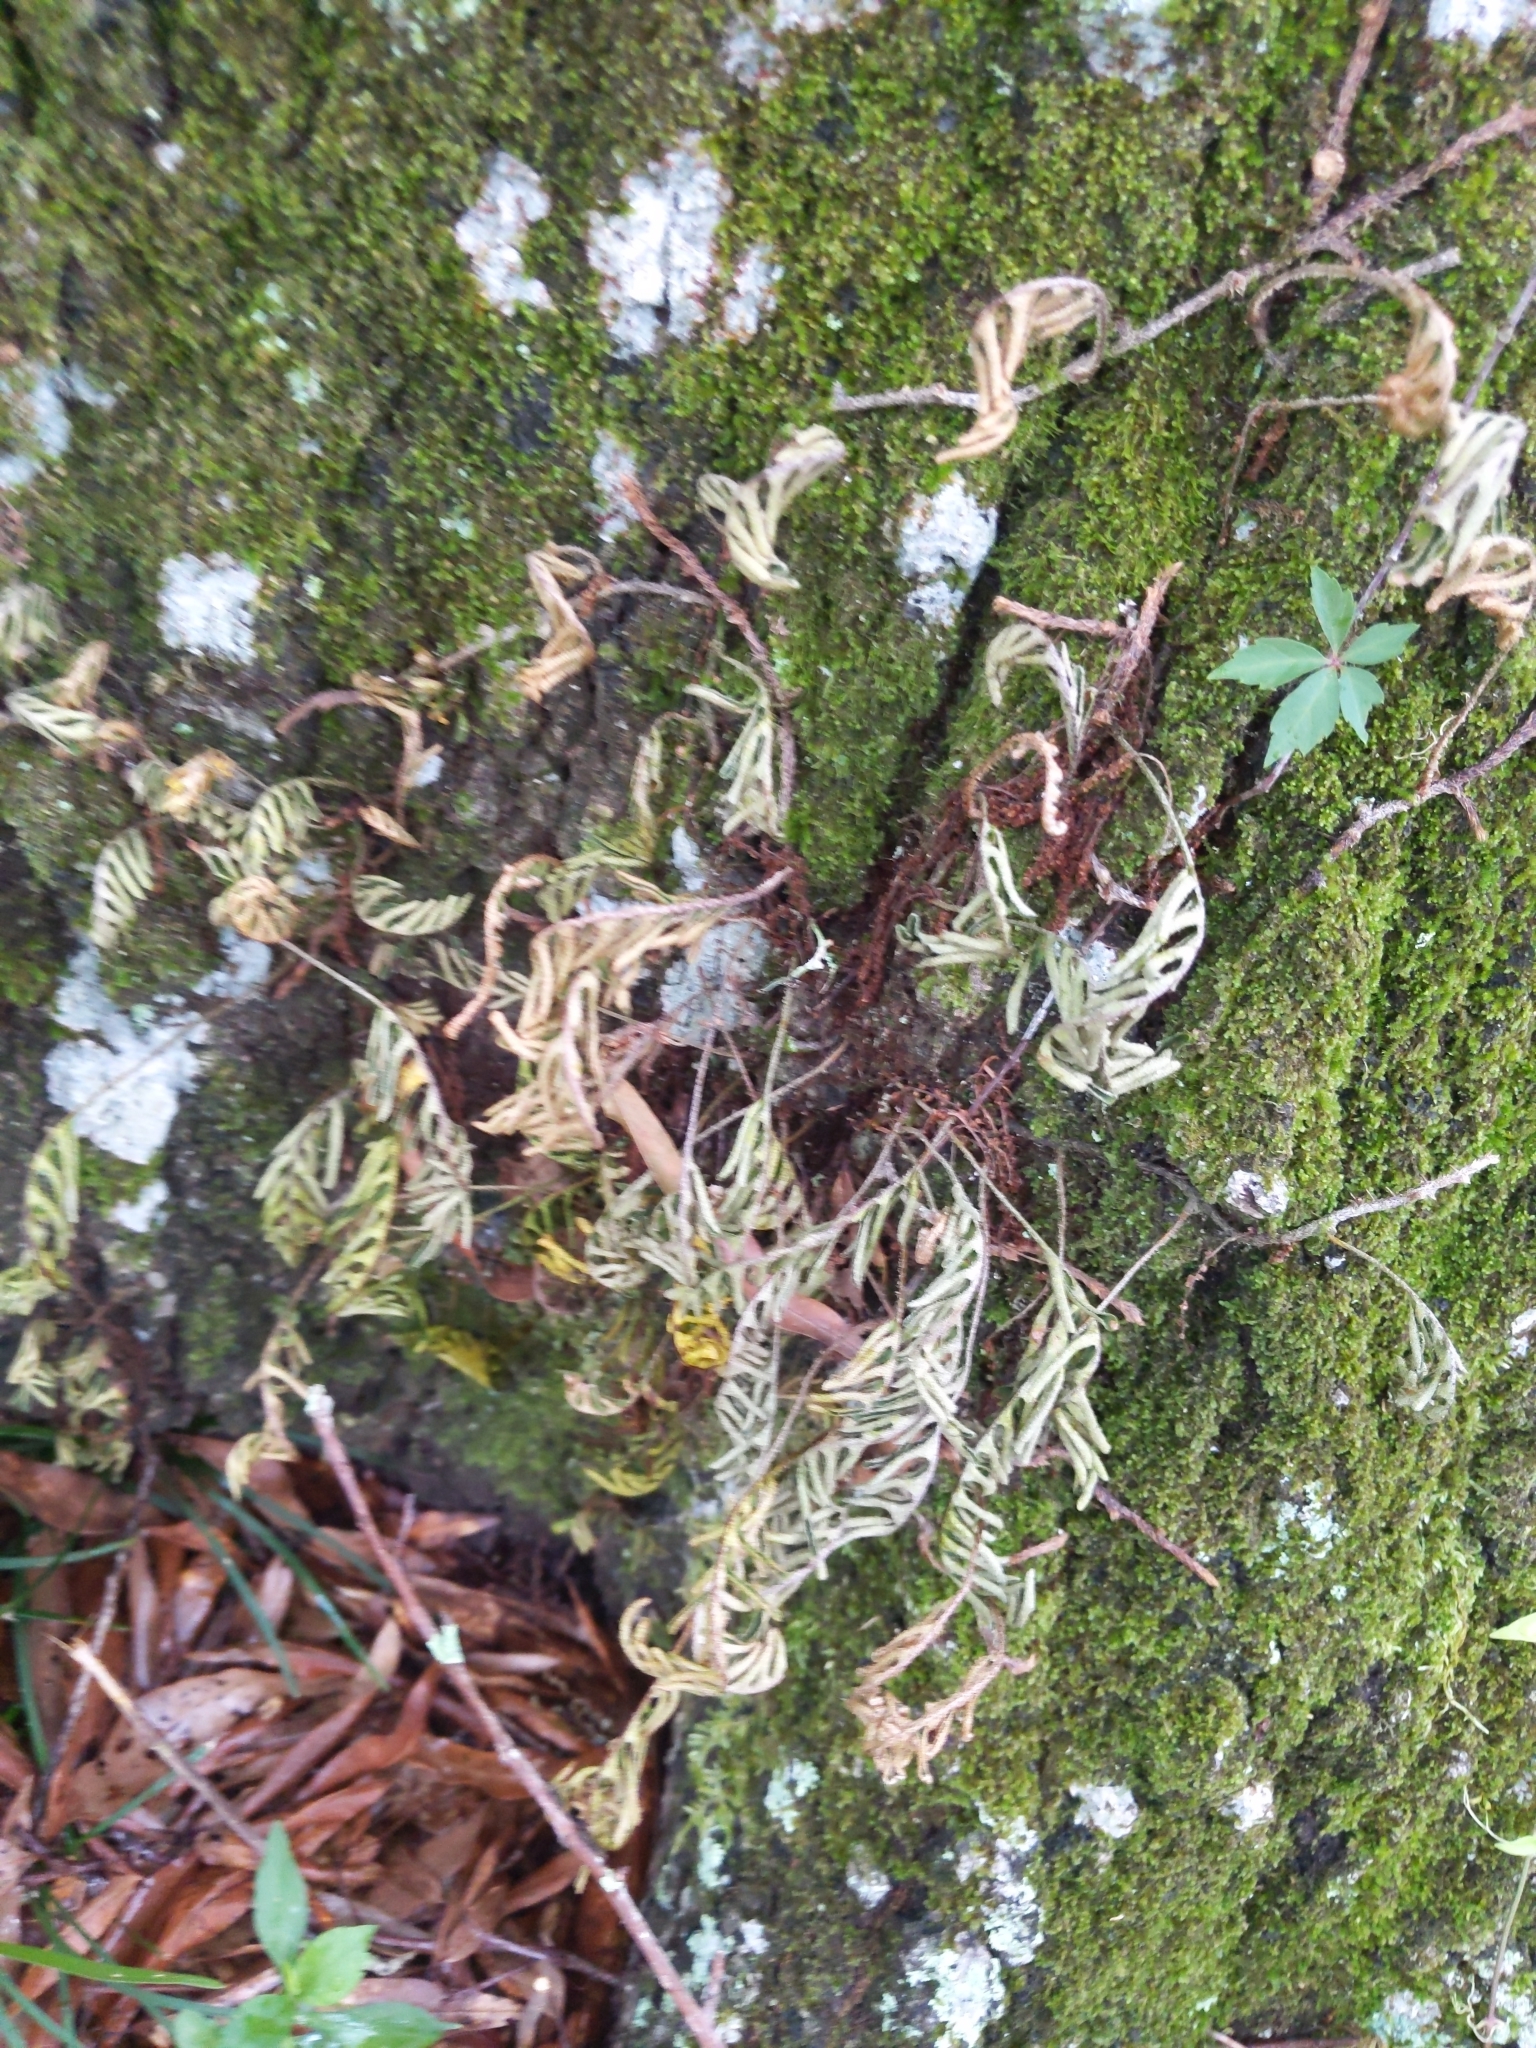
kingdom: Plantae
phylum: Tracheophyta
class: Polypodiopsida
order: Polypodiales
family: Polypodiaceae
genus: Pleopeltis
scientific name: Pleopeltis michauxiana
